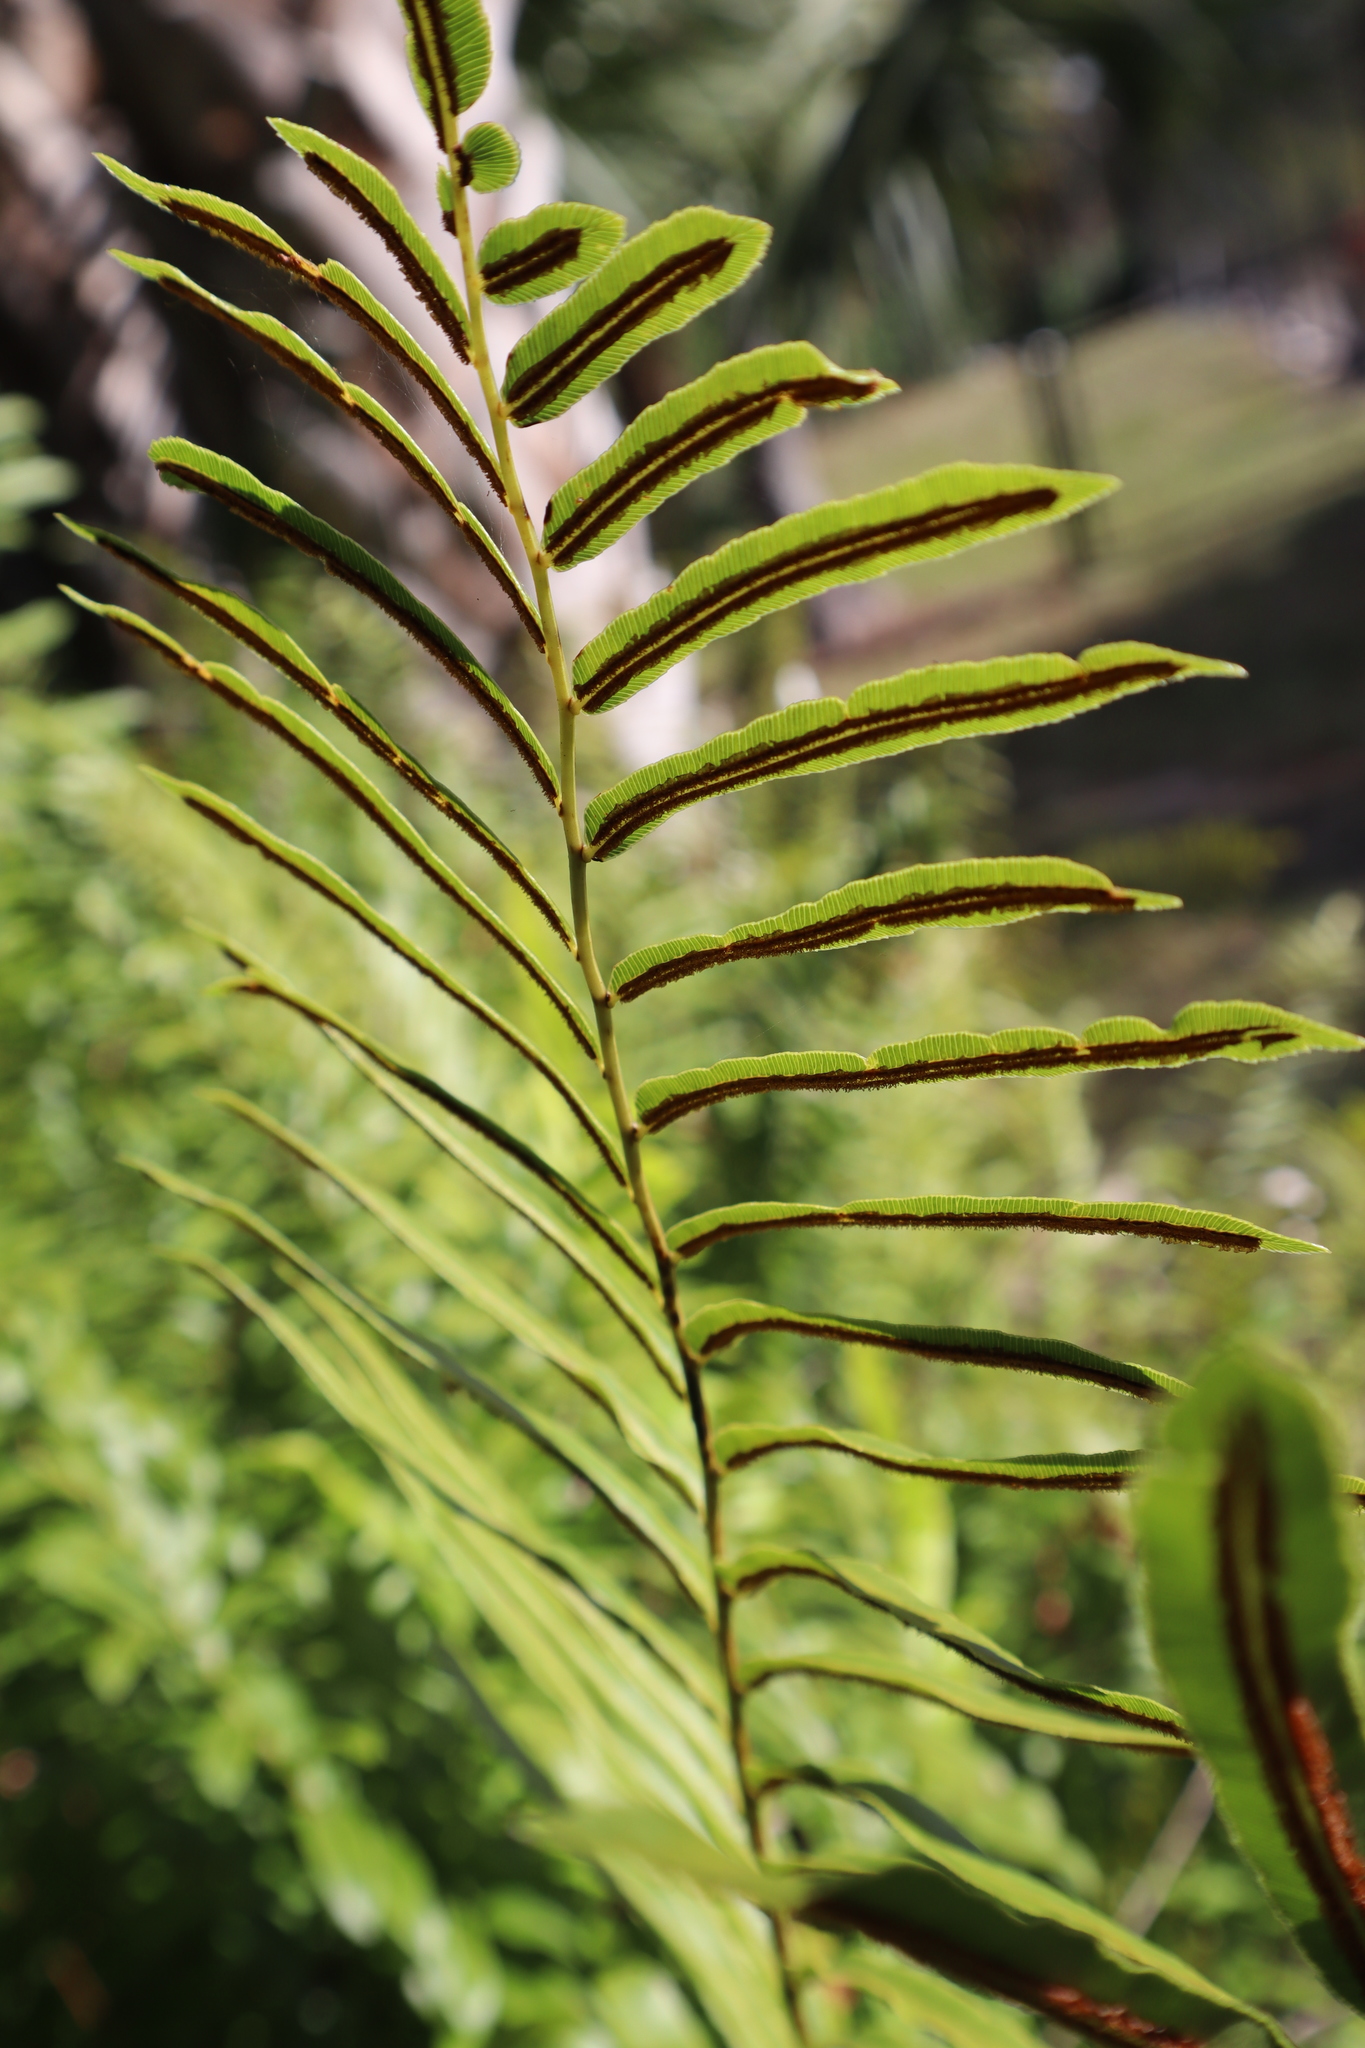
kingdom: Plantae
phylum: Tracheophyta
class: Polypodiopsida
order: Polypodiales
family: Blechnaceae
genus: Telmatoblechnum
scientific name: Telmatoblechnum serrulatum
